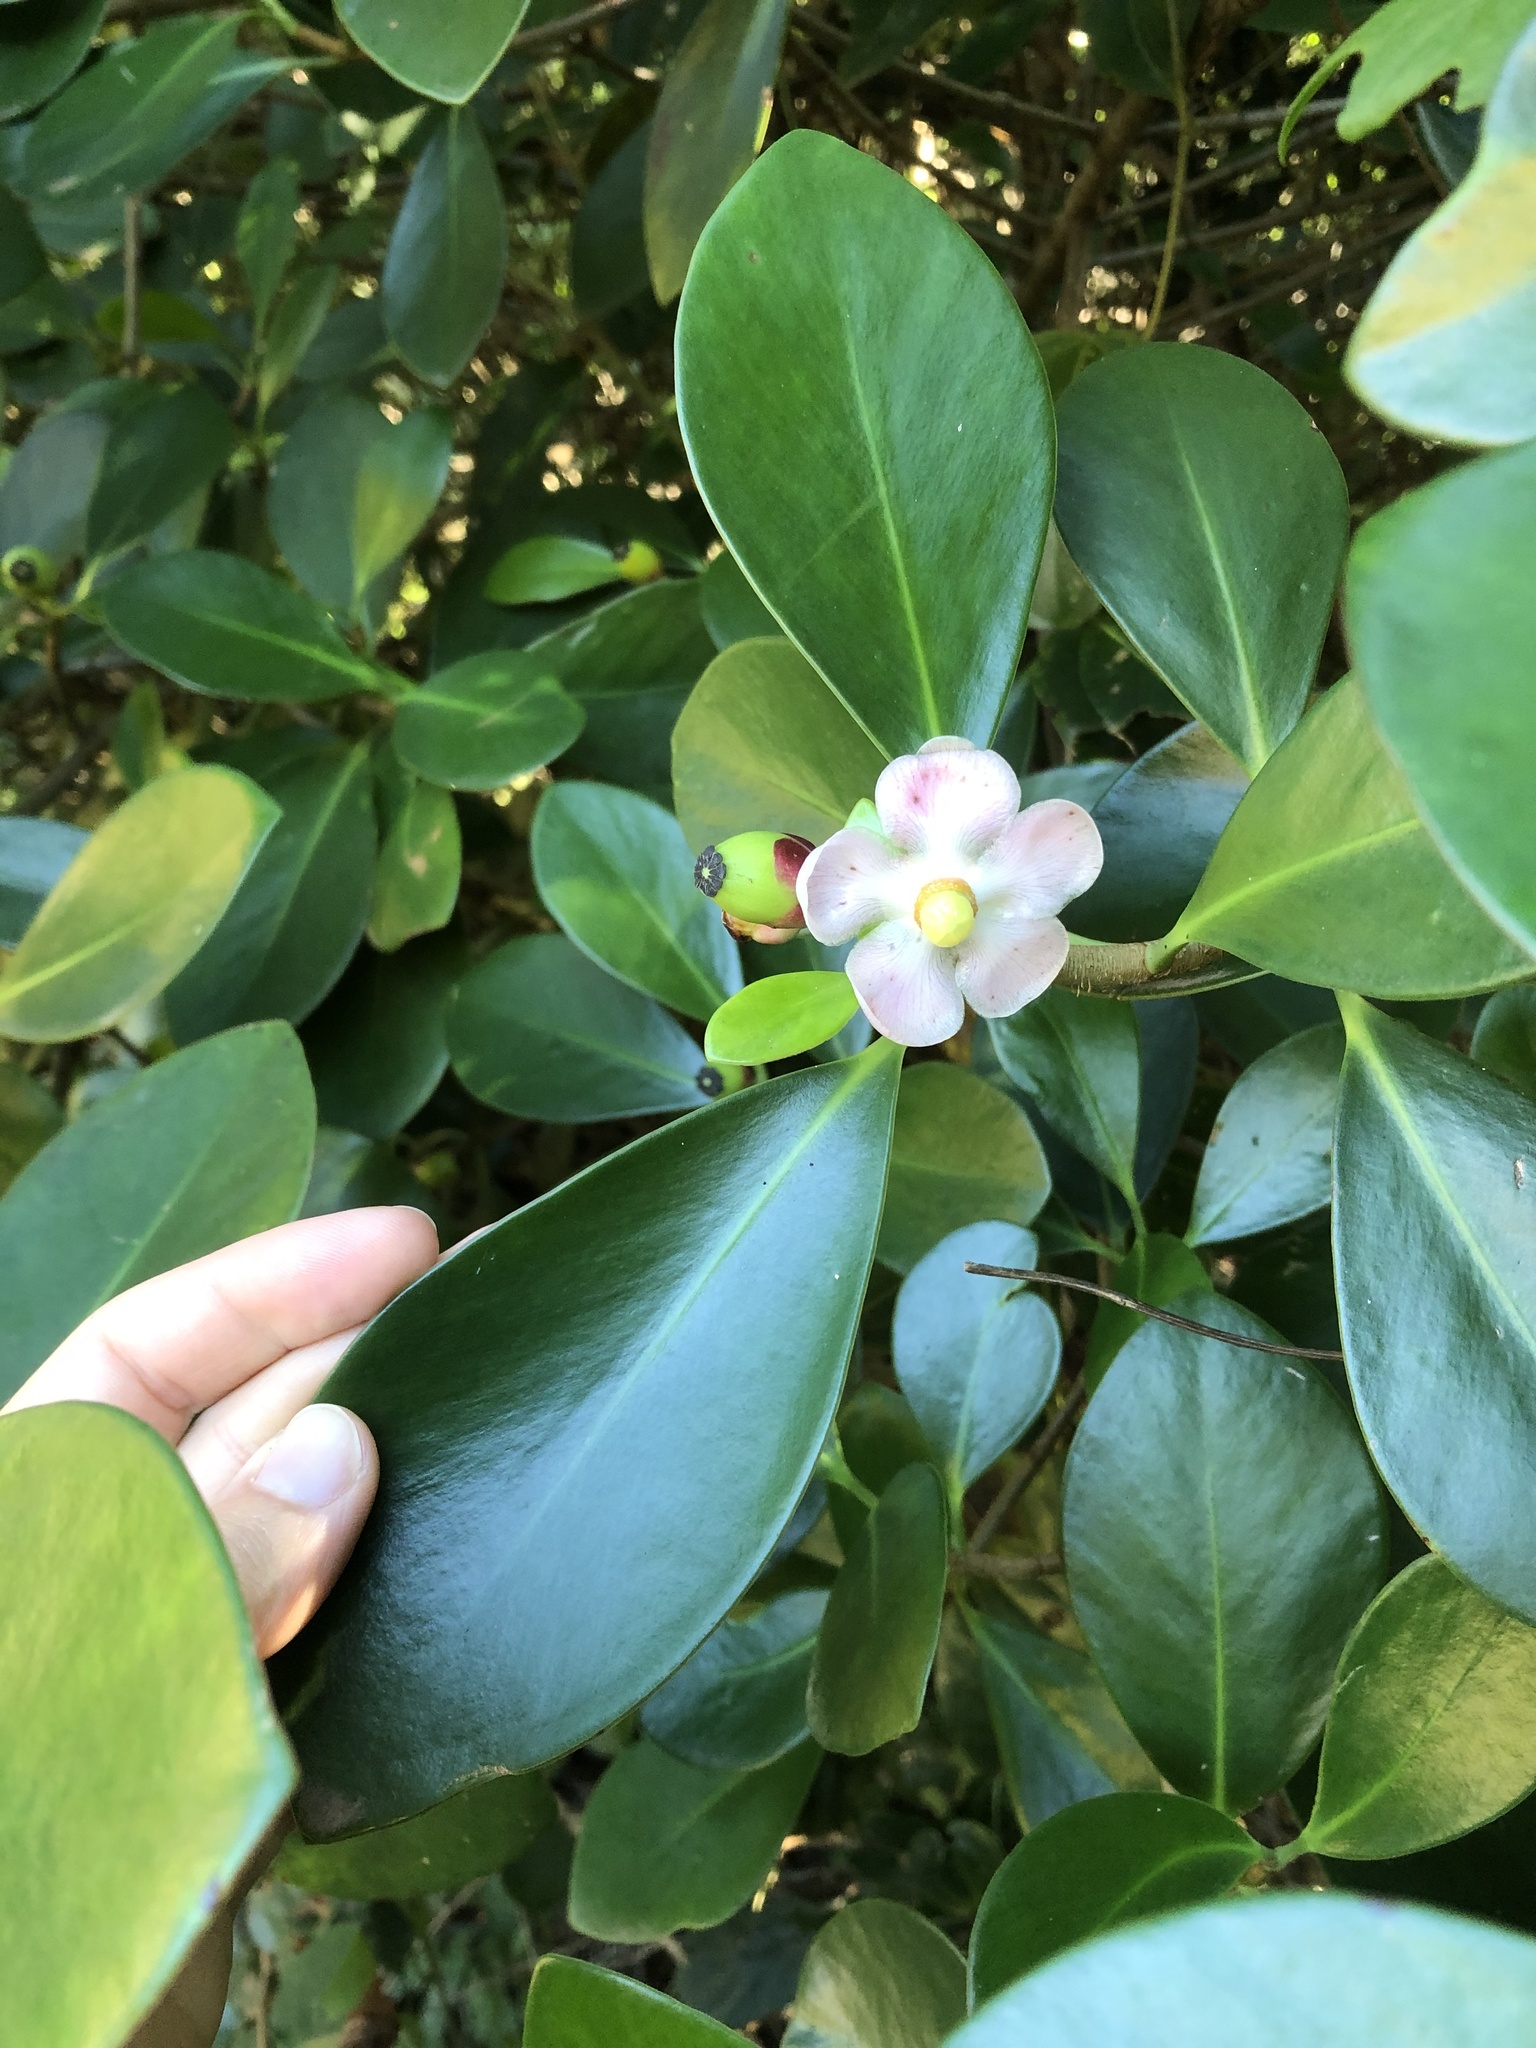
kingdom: Plantae
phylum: Tracheophyta
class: Magnoliopsida
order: Malpighiales
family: Clusiaceae
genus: Clusia
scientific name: Clusia rosea
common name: Scotch attorney
